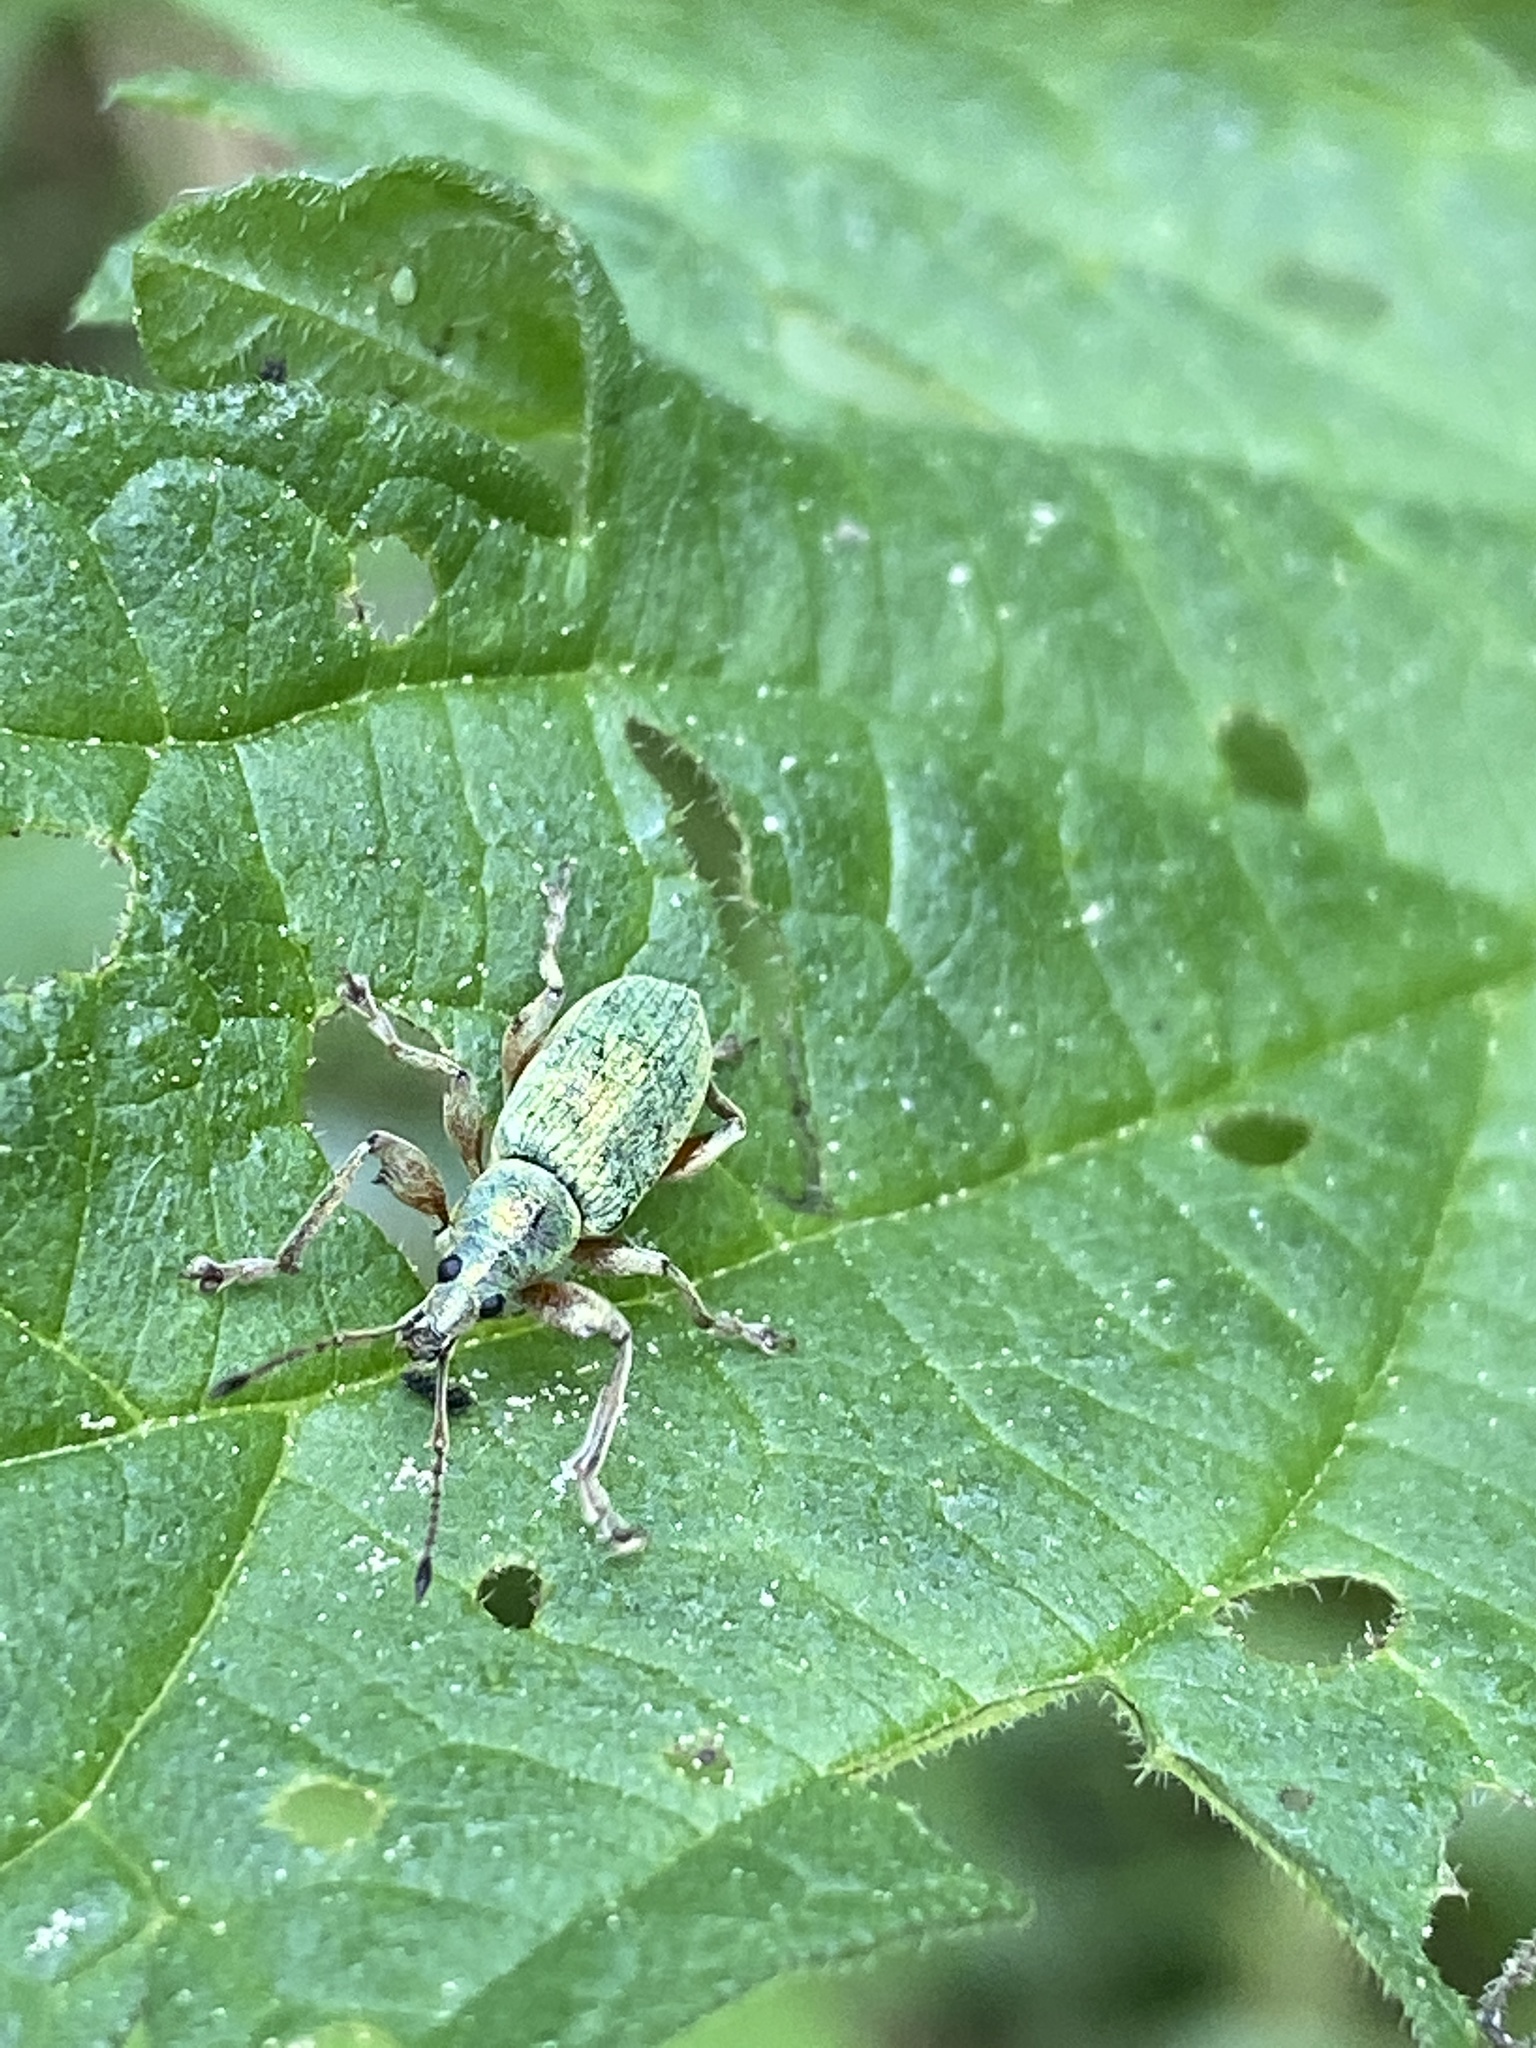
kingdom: Animalia
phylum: Arthropoda
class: Insecta
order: Coleoptera
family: Curculionidae
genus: Phyllobius
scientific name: Phyllobius pomaceus
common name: Green nettle weevil
